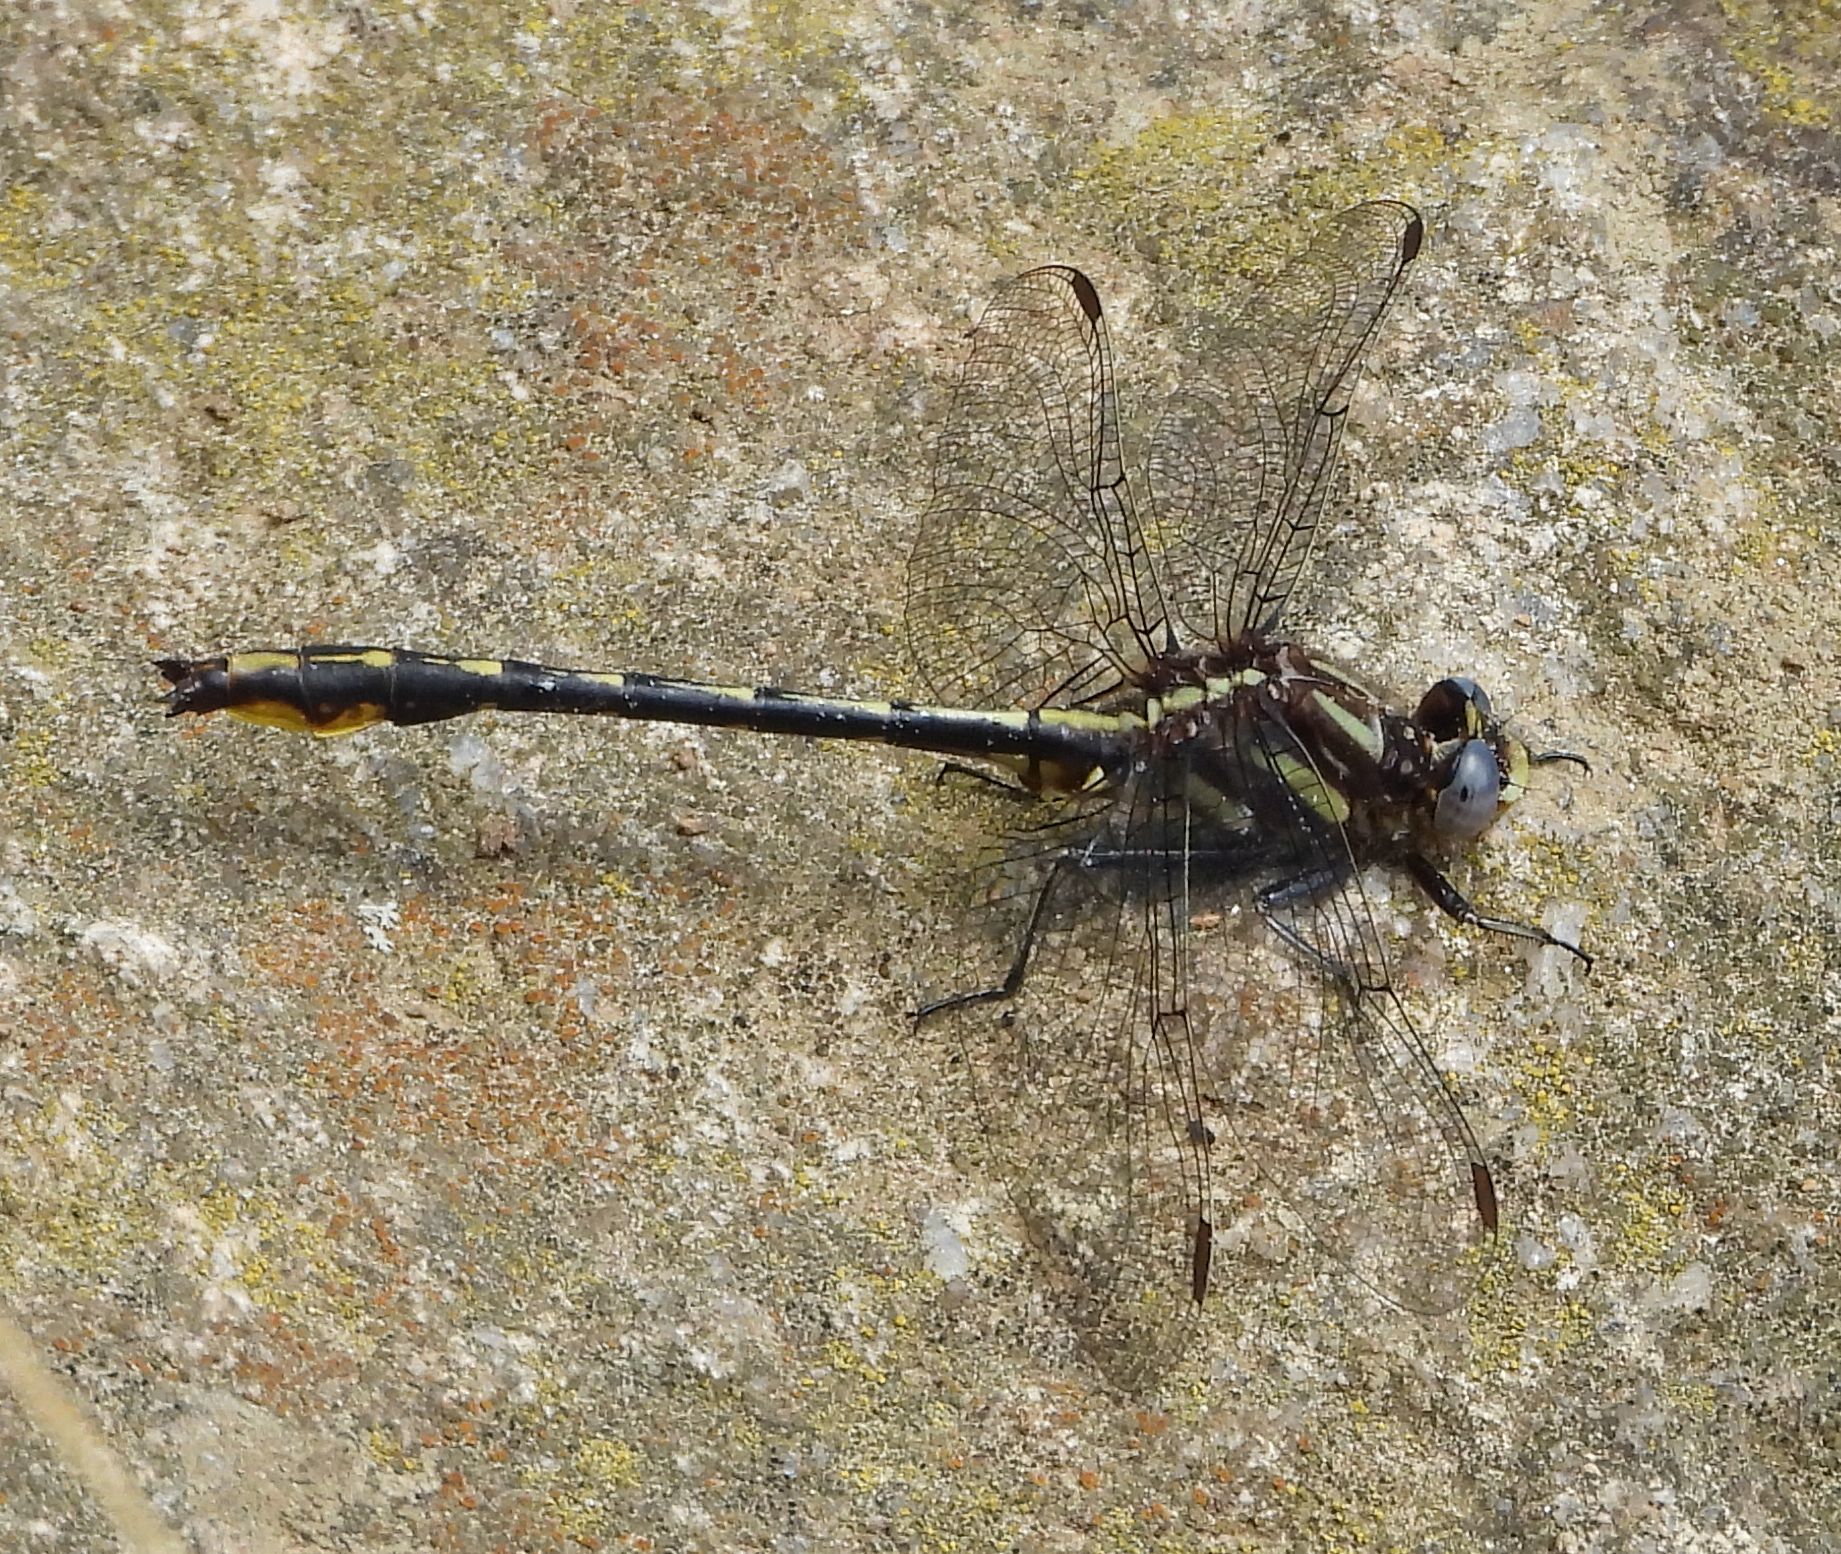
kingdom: Animalia
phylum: Arthropoda
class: Insecta
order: Odonata
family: Gomphidae
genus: Phanogomphus
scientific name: Phanogomphus exilis
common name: Lancet clubtail
